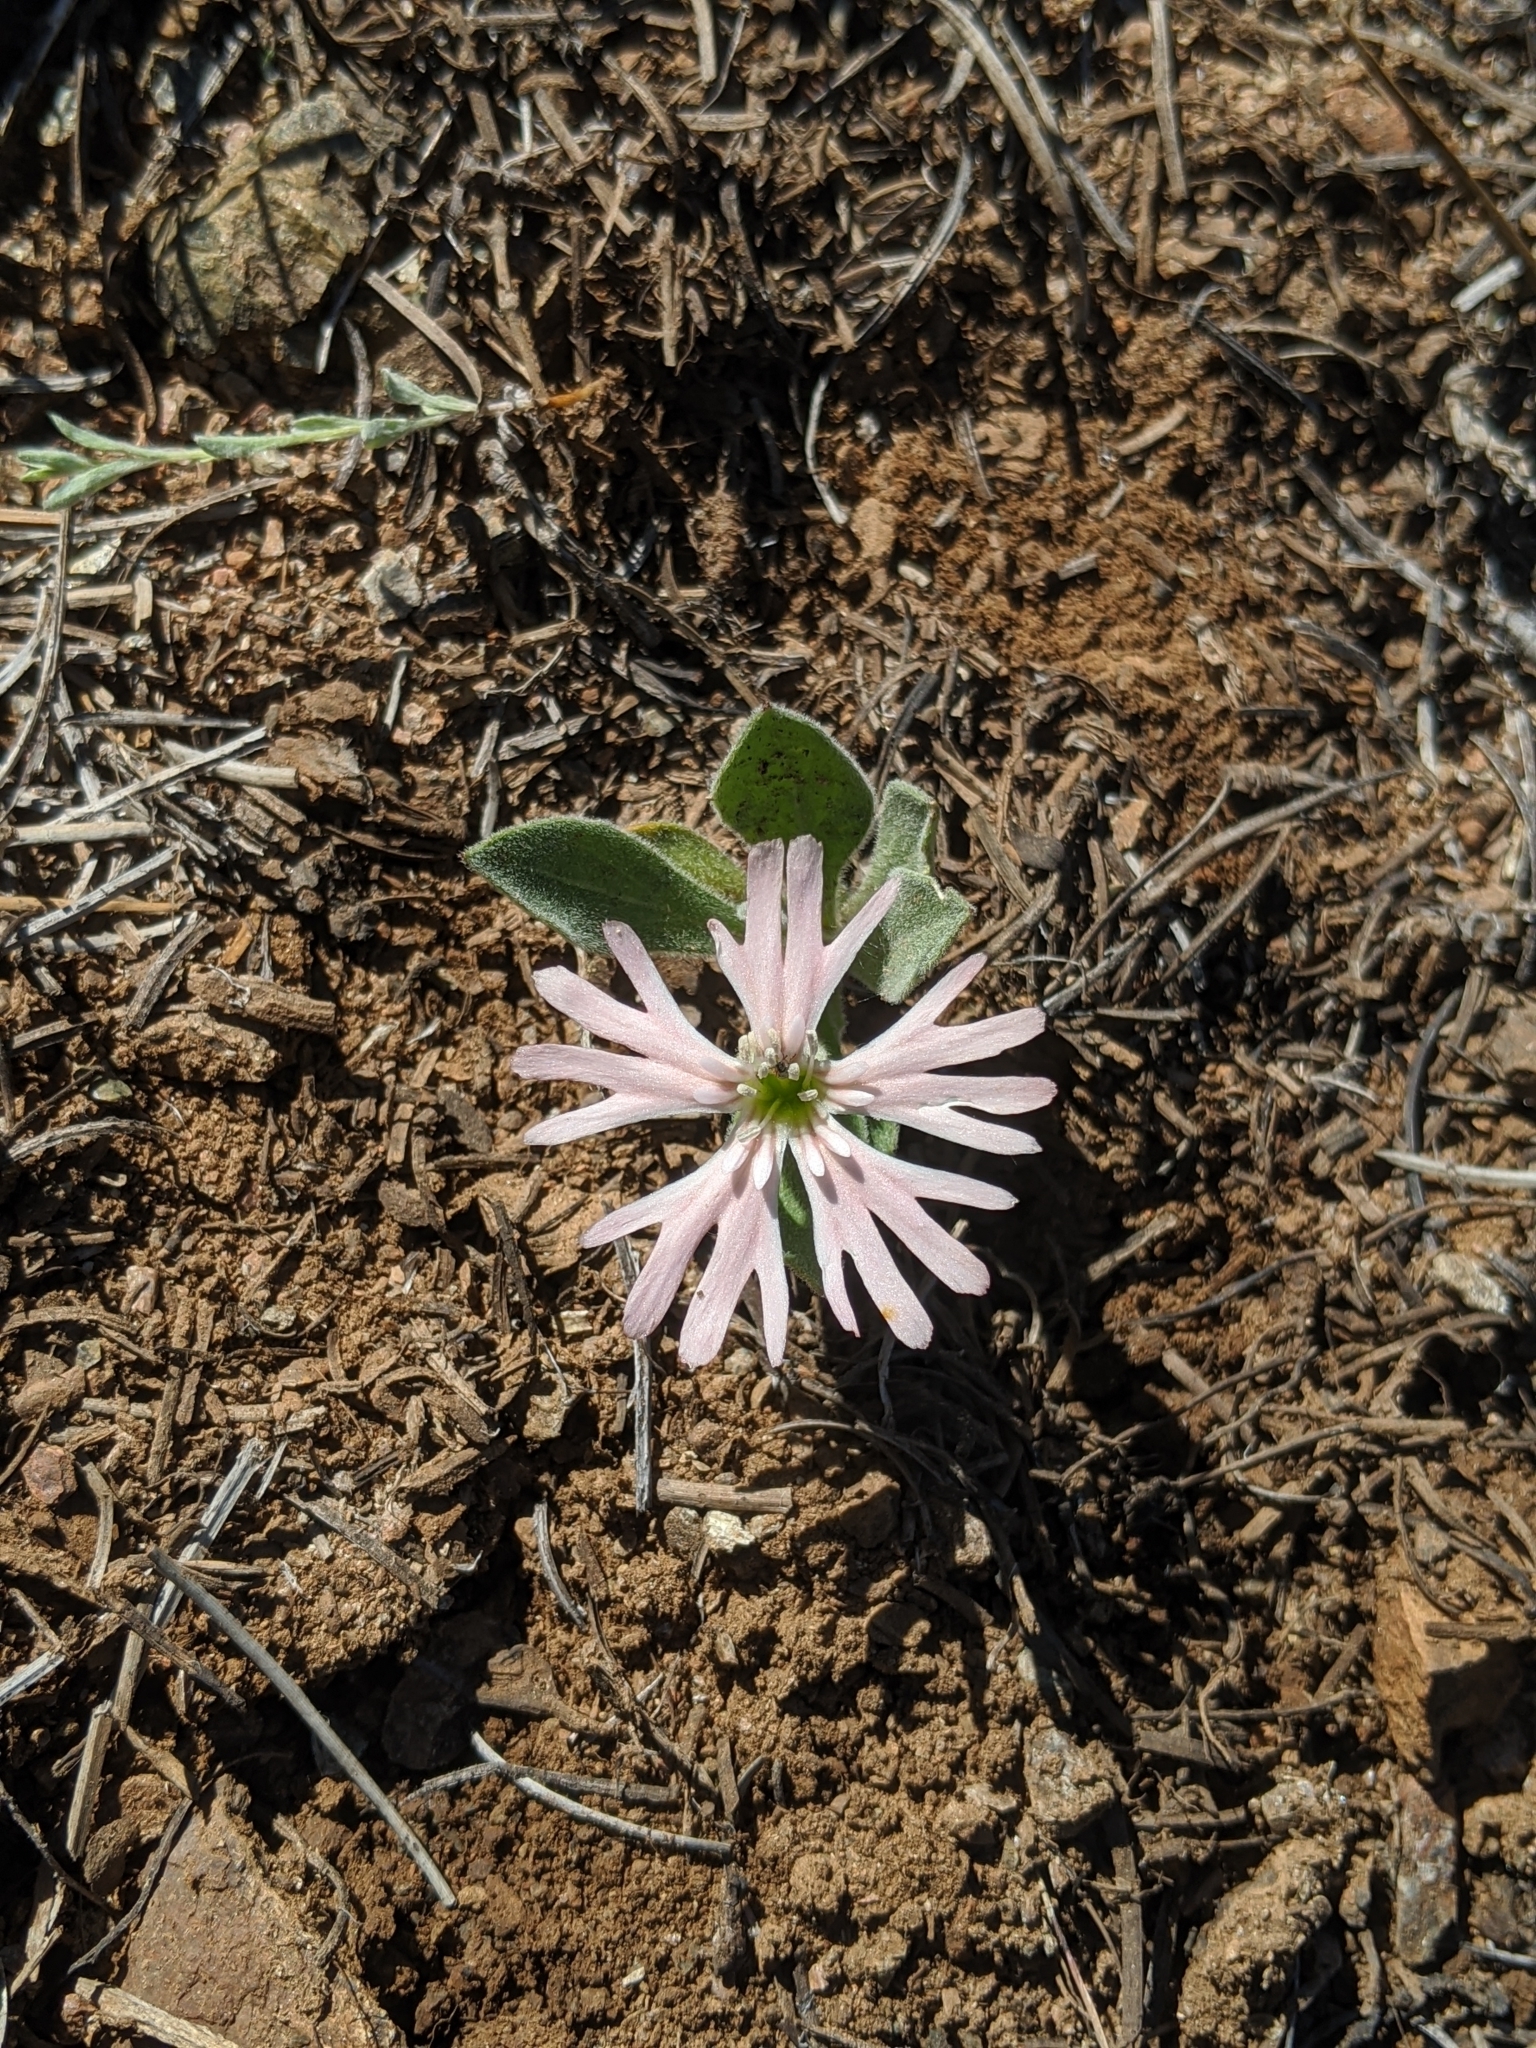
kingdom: Plantae
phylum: Tracheophyta
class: Magnoliopsida
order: Caryophyllales
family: Caryophyllaceae
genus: Silene
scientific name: Silene hookeri
